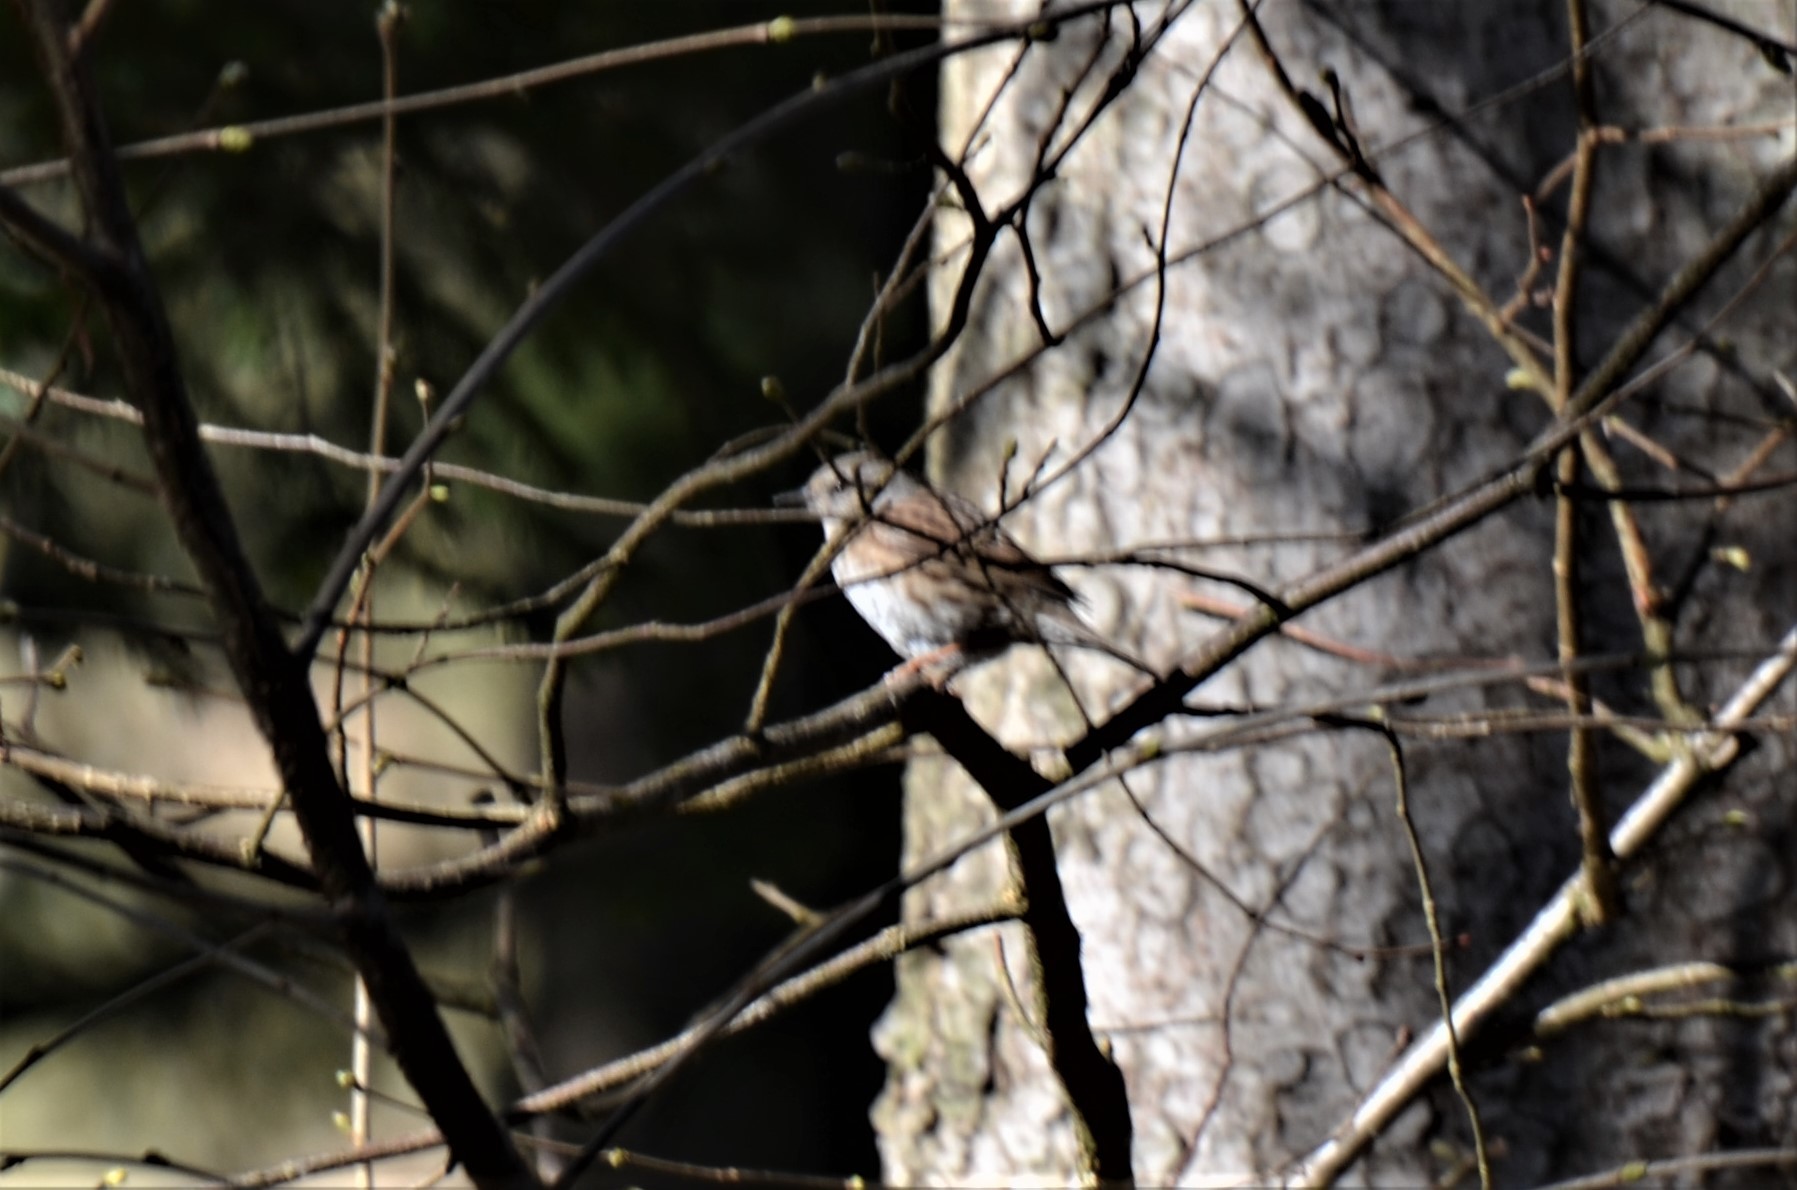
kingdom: Animalia
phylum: Chordata
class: Aves
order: Passeriformes
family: Prunellidae
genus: Prunella
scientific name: Prunella modularis
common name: Dunnock
